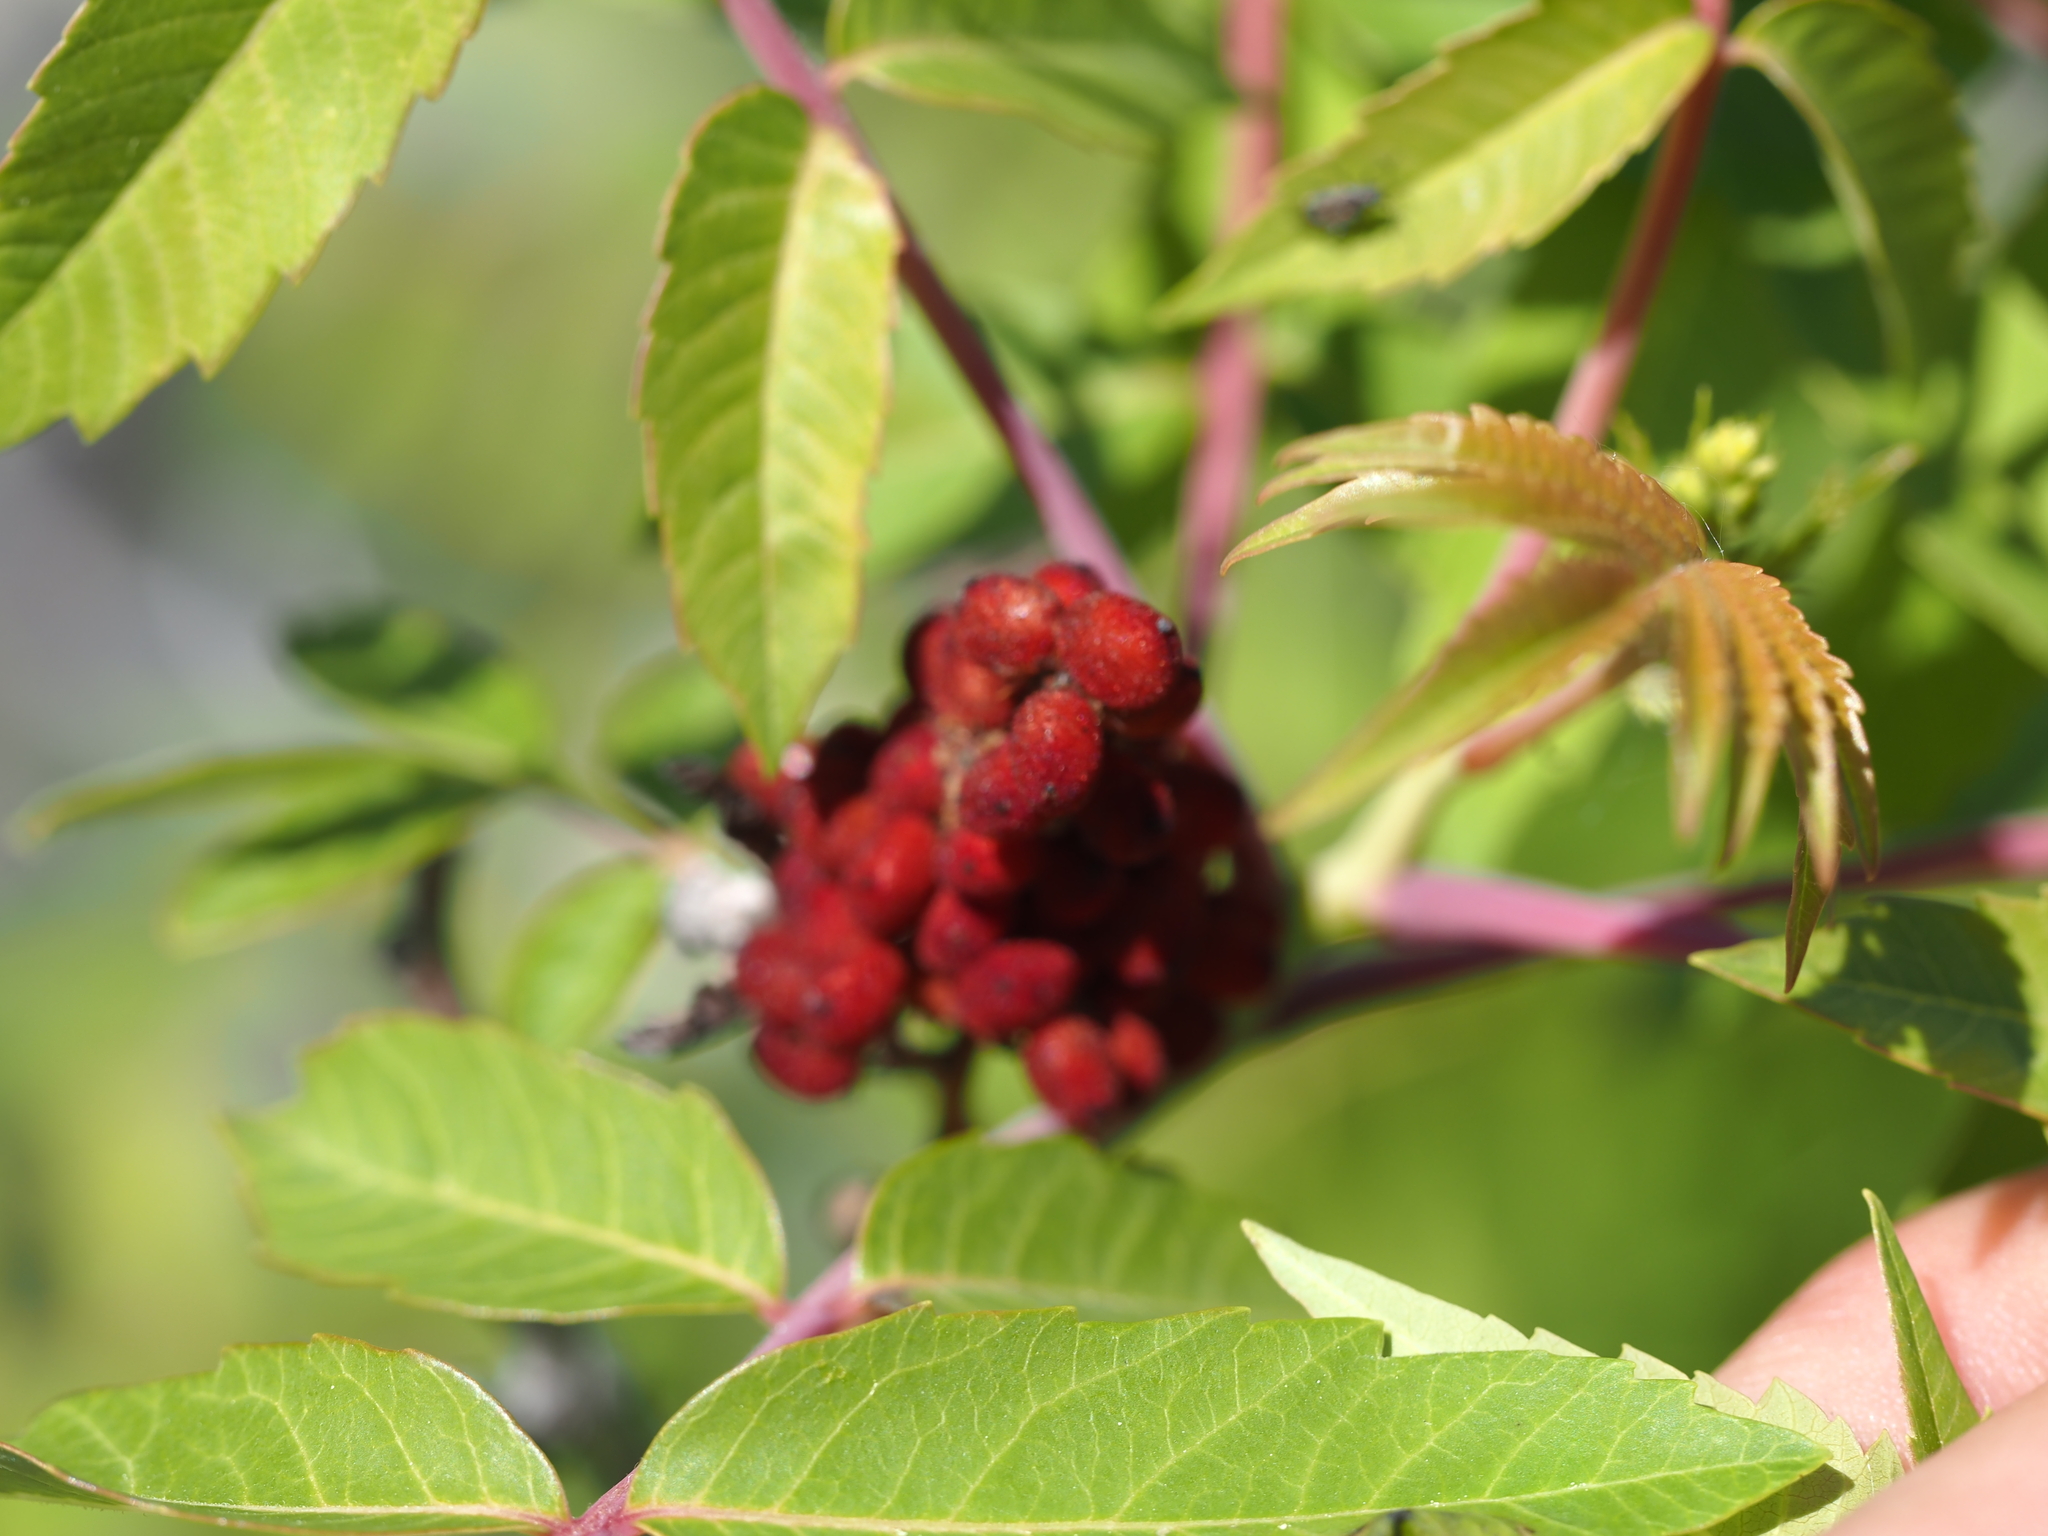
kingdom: Plantae
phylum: Tracheophyta
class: Magnoliopsida
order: Sapindales
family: Anacardiaceae
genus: Rhus
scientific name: Rhus glabra
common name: Scarlet sumac
